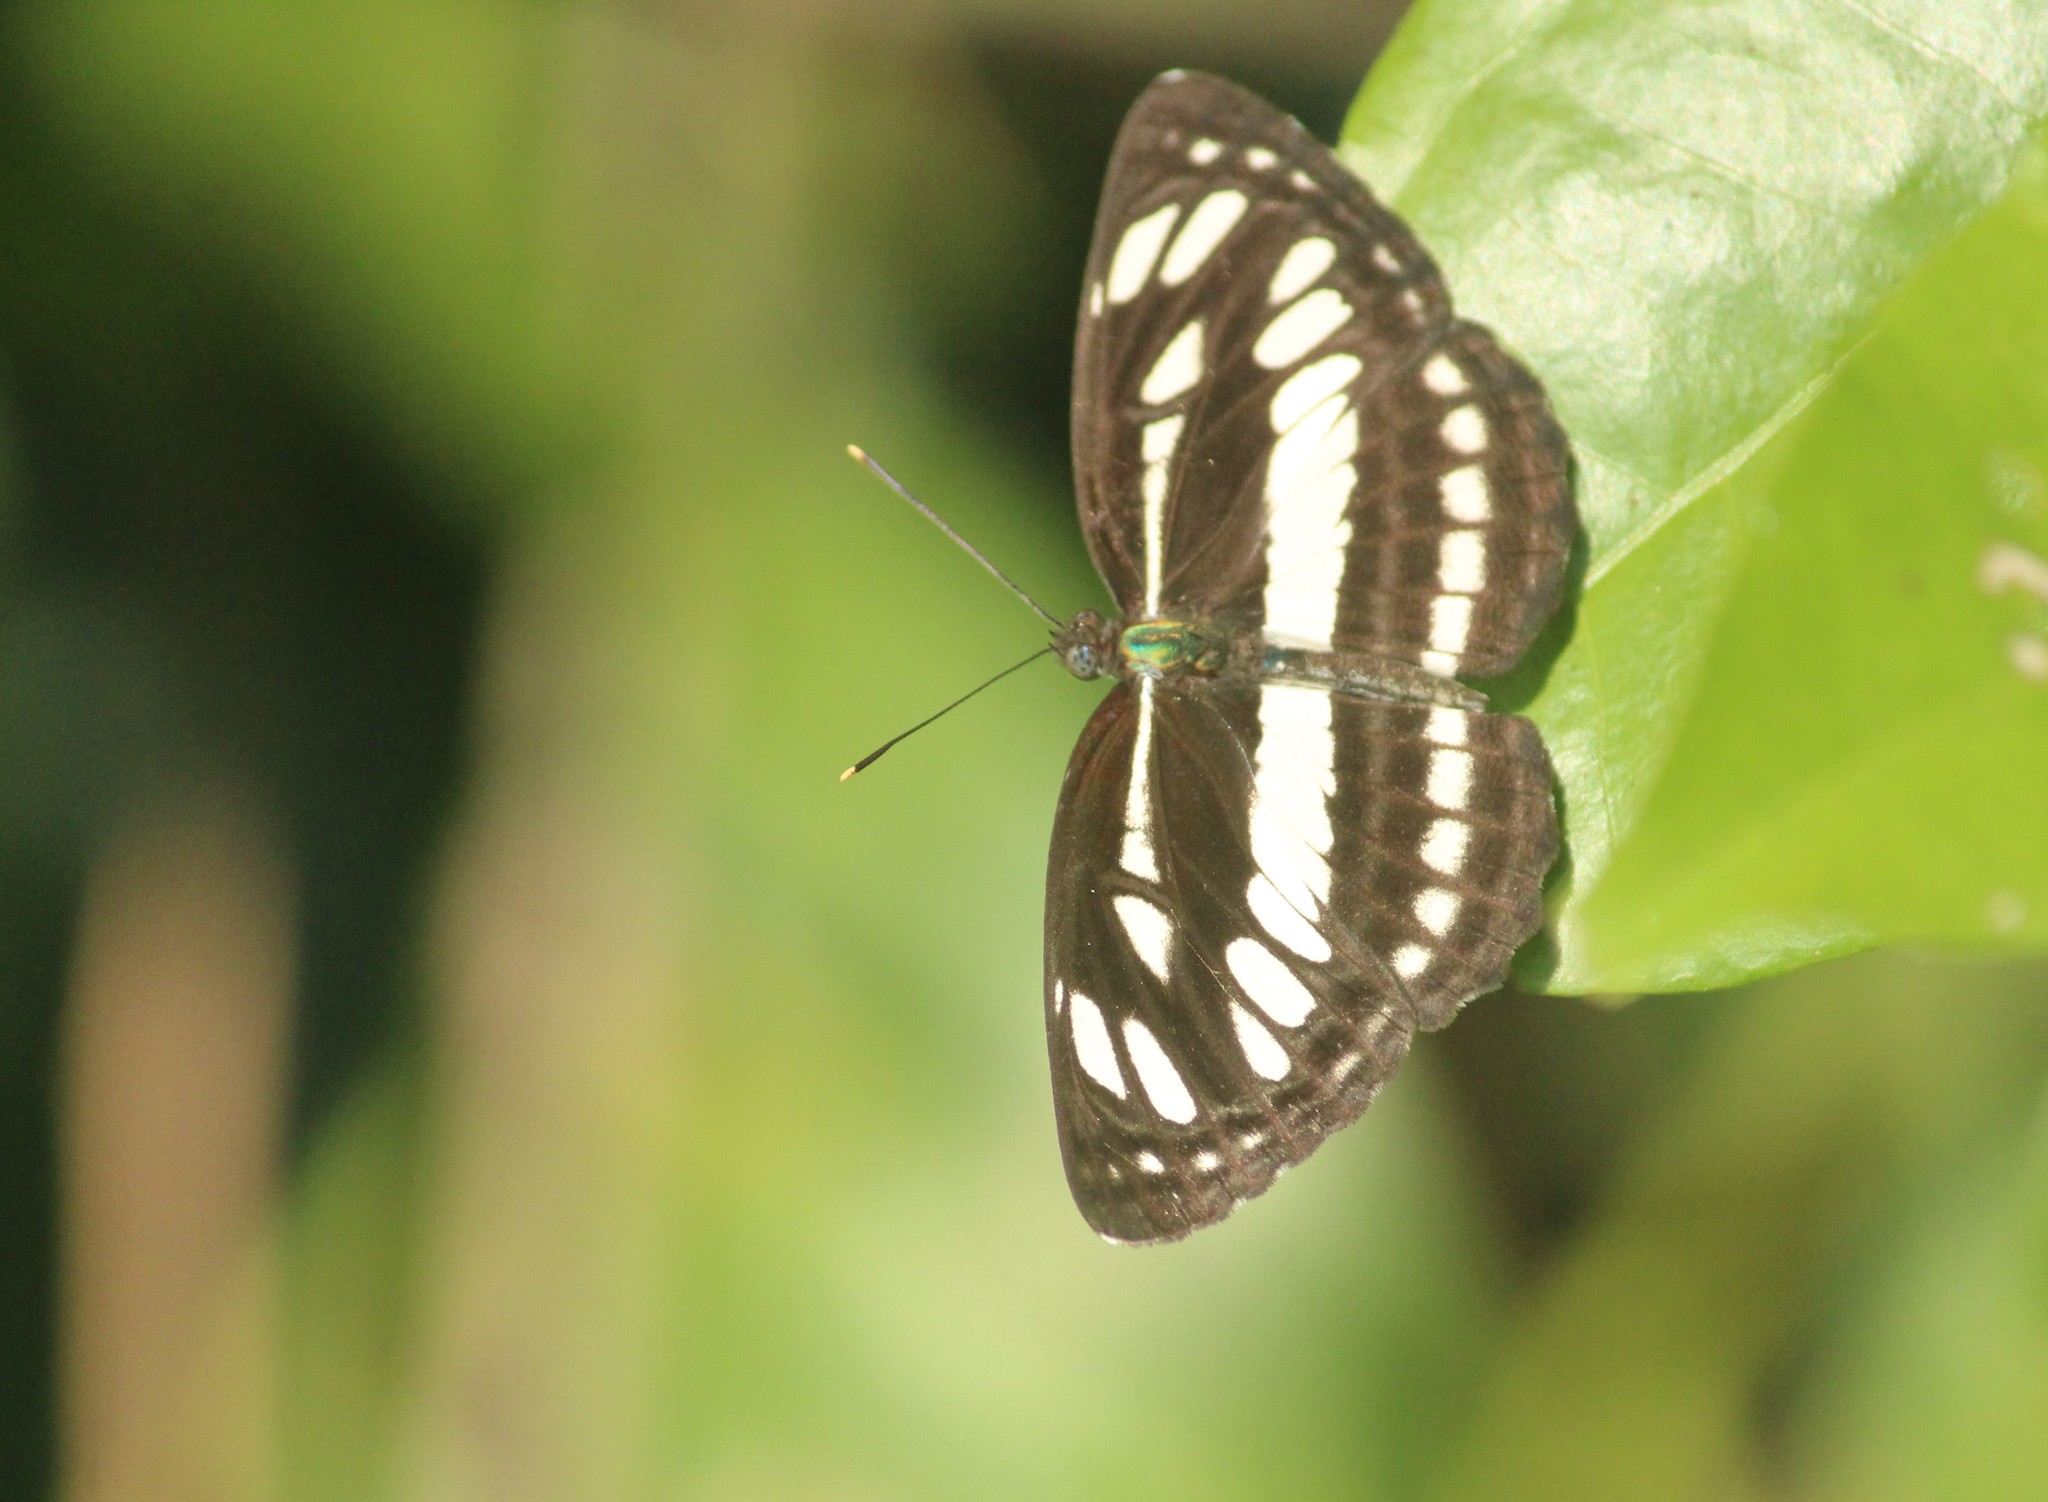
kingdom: Animalia
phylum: Arthropoda
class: Insecta
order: Lepidoptera
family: Nymphalidae
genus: Neptis
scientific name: Neptis hylas
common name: Common sailer
